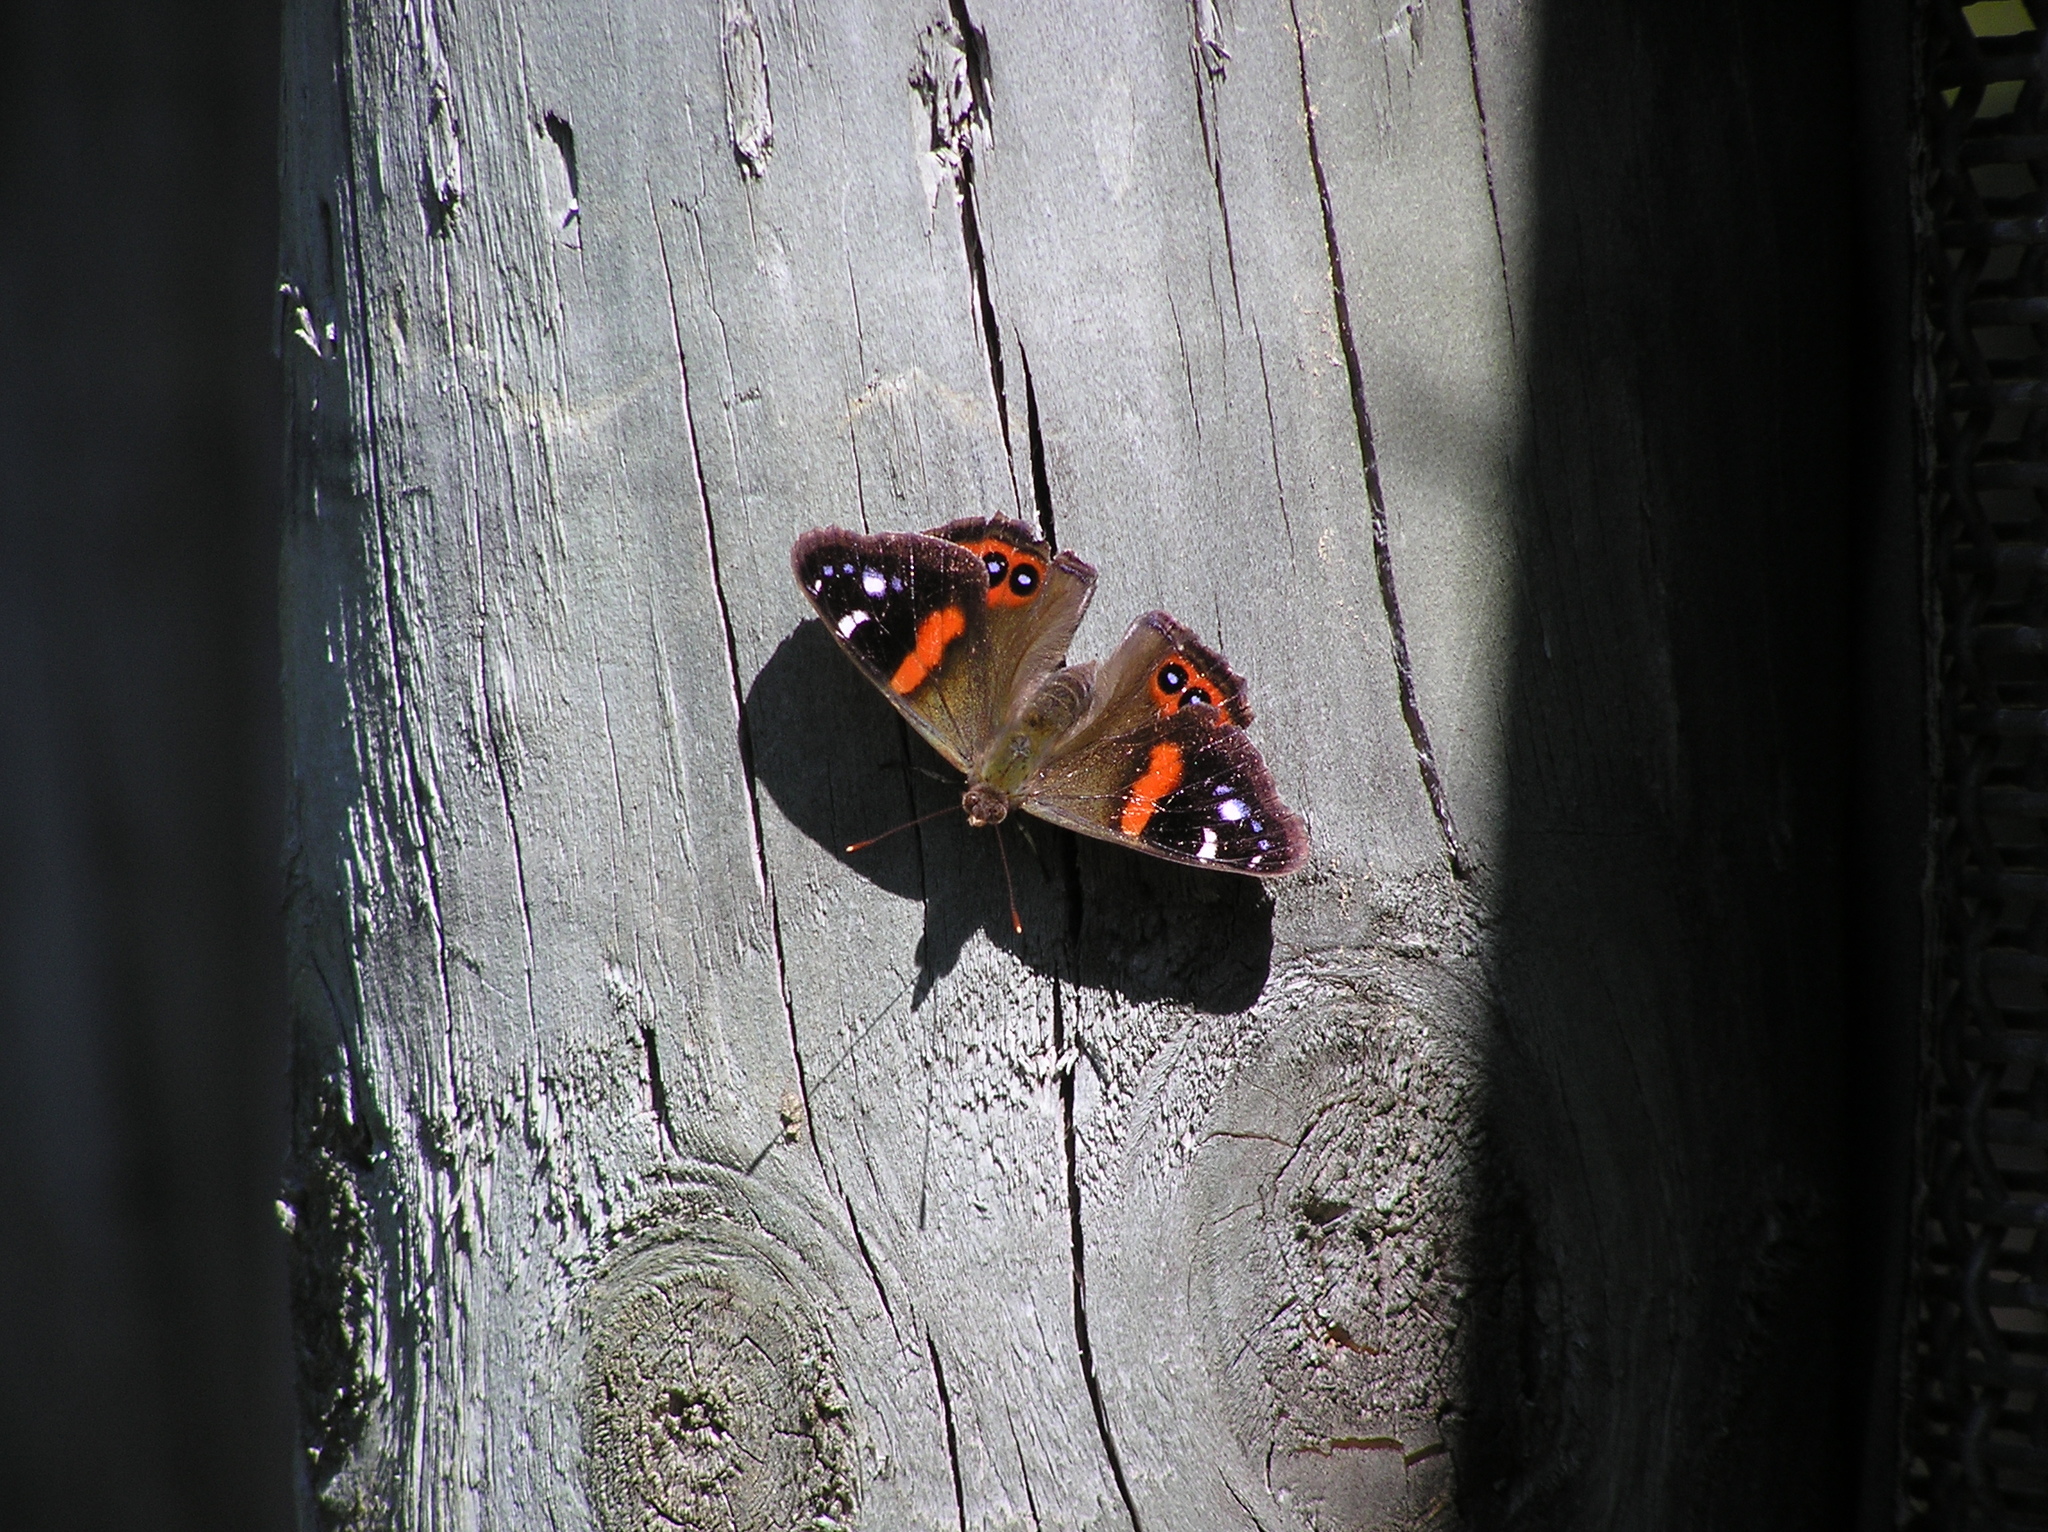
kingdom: Animalia
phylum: Arthropoda
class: Insecta
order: Lepidoptera
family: Nymphalidae
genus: Vanessa
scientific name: Vanessa gonerilla
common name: New zealand red admiral
